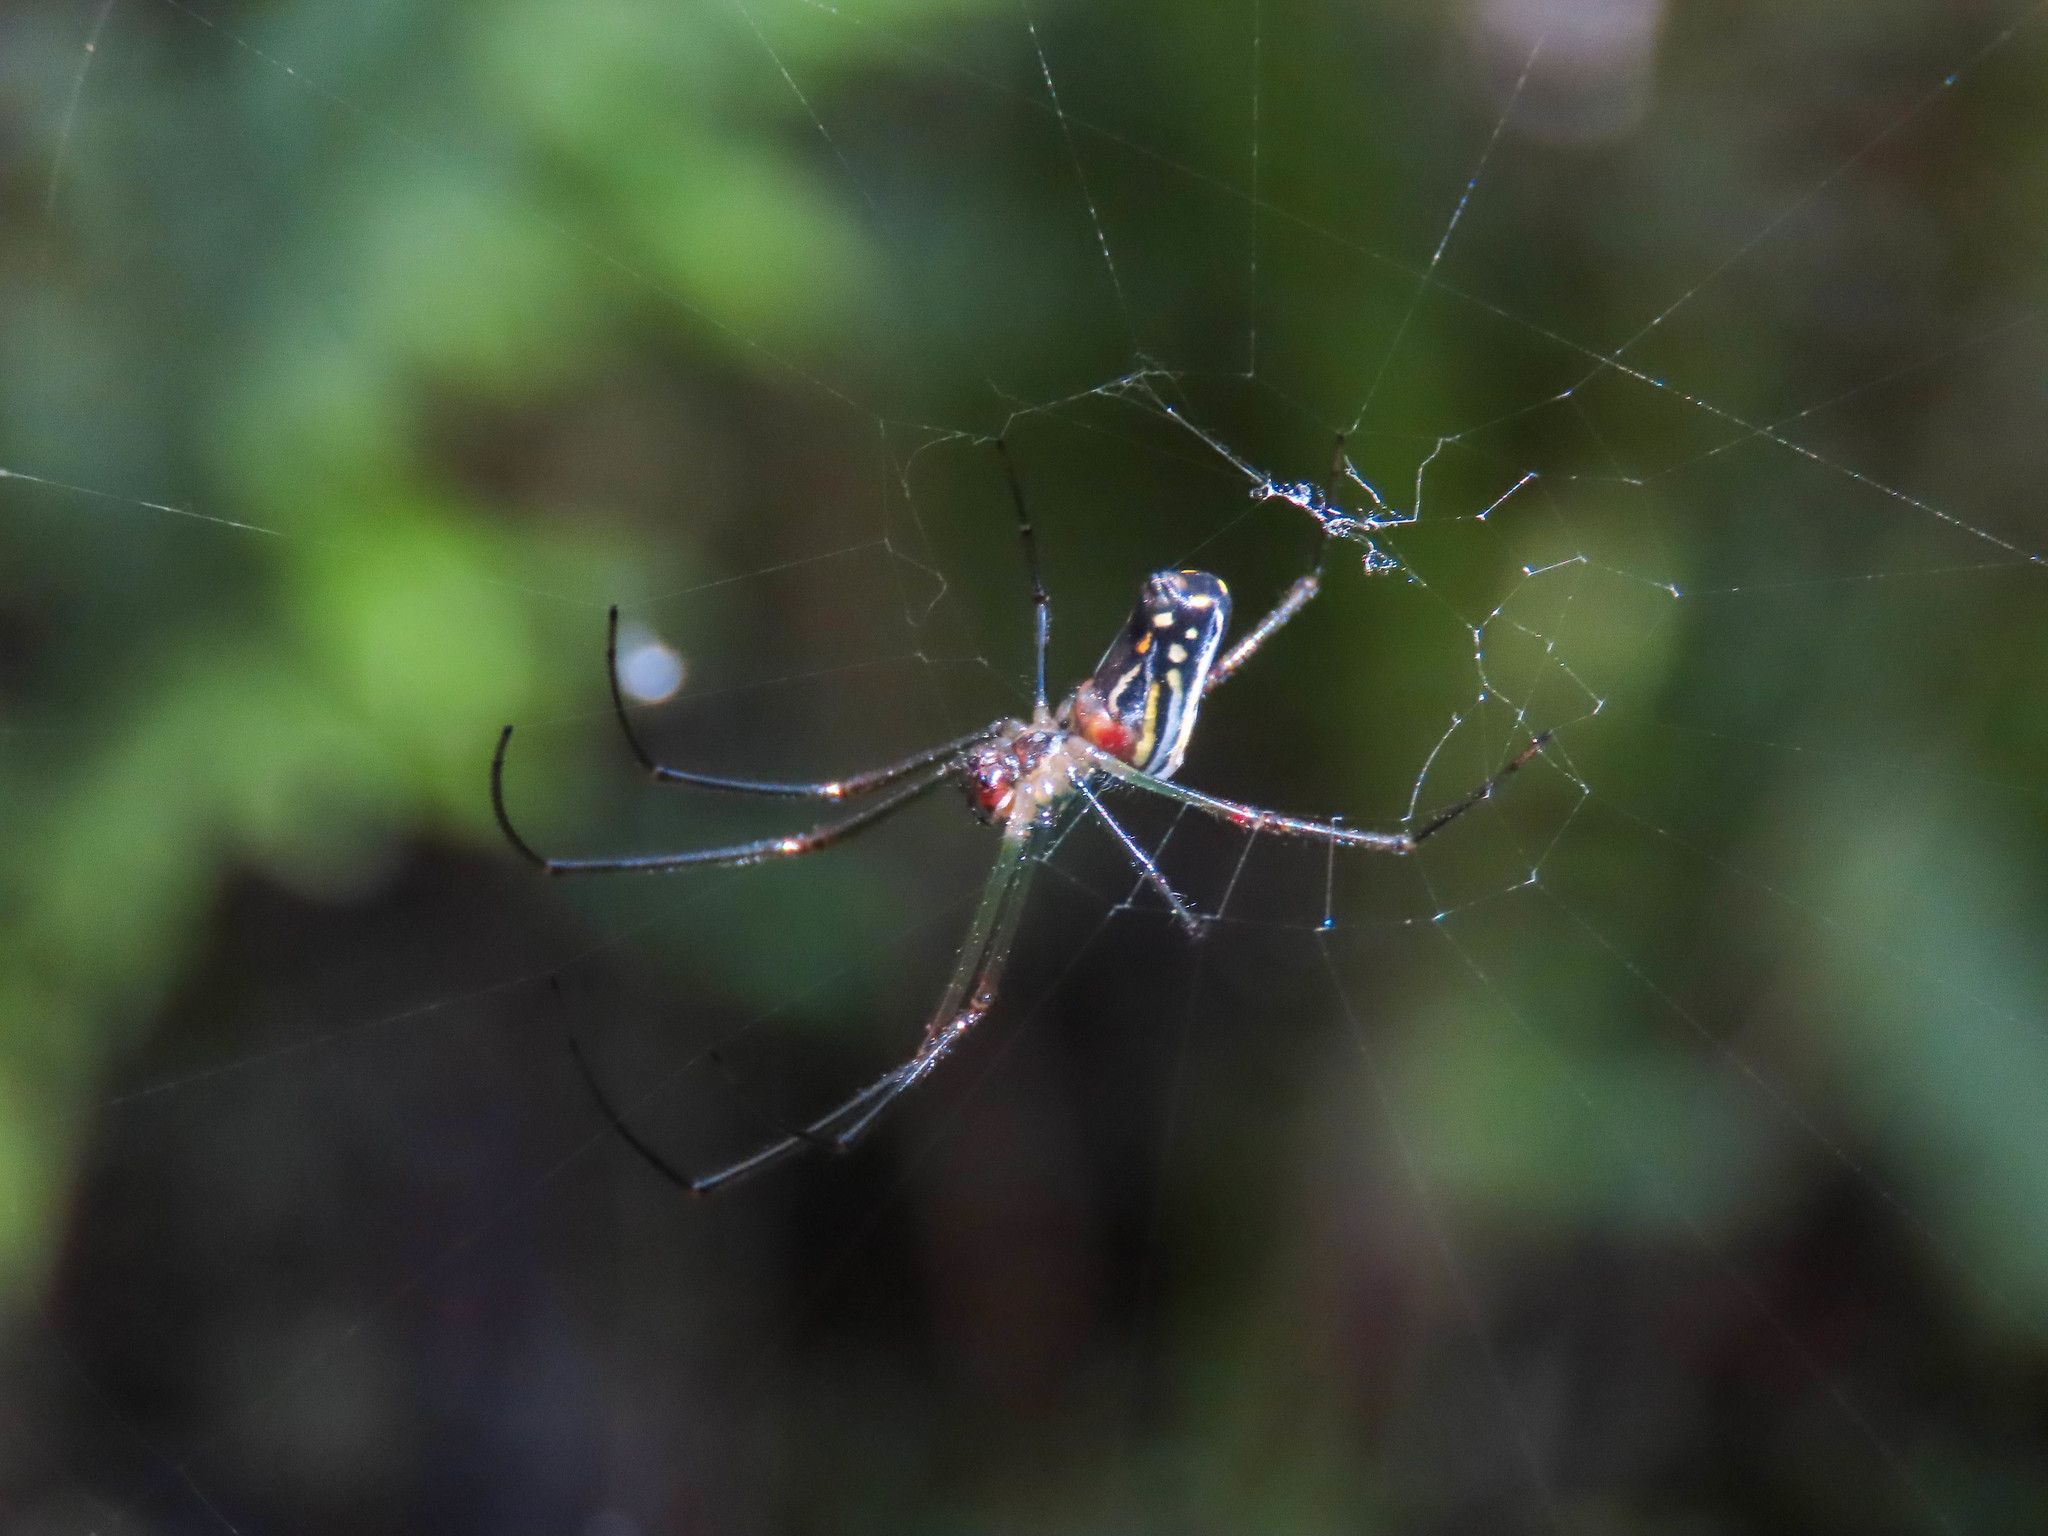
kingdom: Animalia
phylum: Arthropoda
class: Arachnida
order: Araneae
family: Tetragnathidae
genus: Leucauge
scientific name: Leucauge argyra
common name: Longjawed orb weavers
